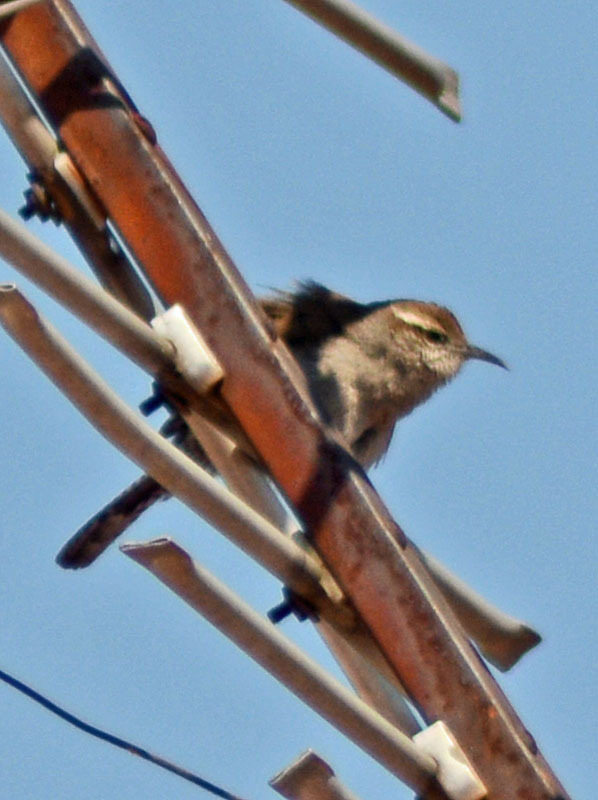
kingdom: Animalia
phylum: Chordata
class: Aves
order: Passeriformes
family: Troglodytidae
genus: Thryomanes
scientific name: Thryomanes bewickii
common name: Bewick's wren
